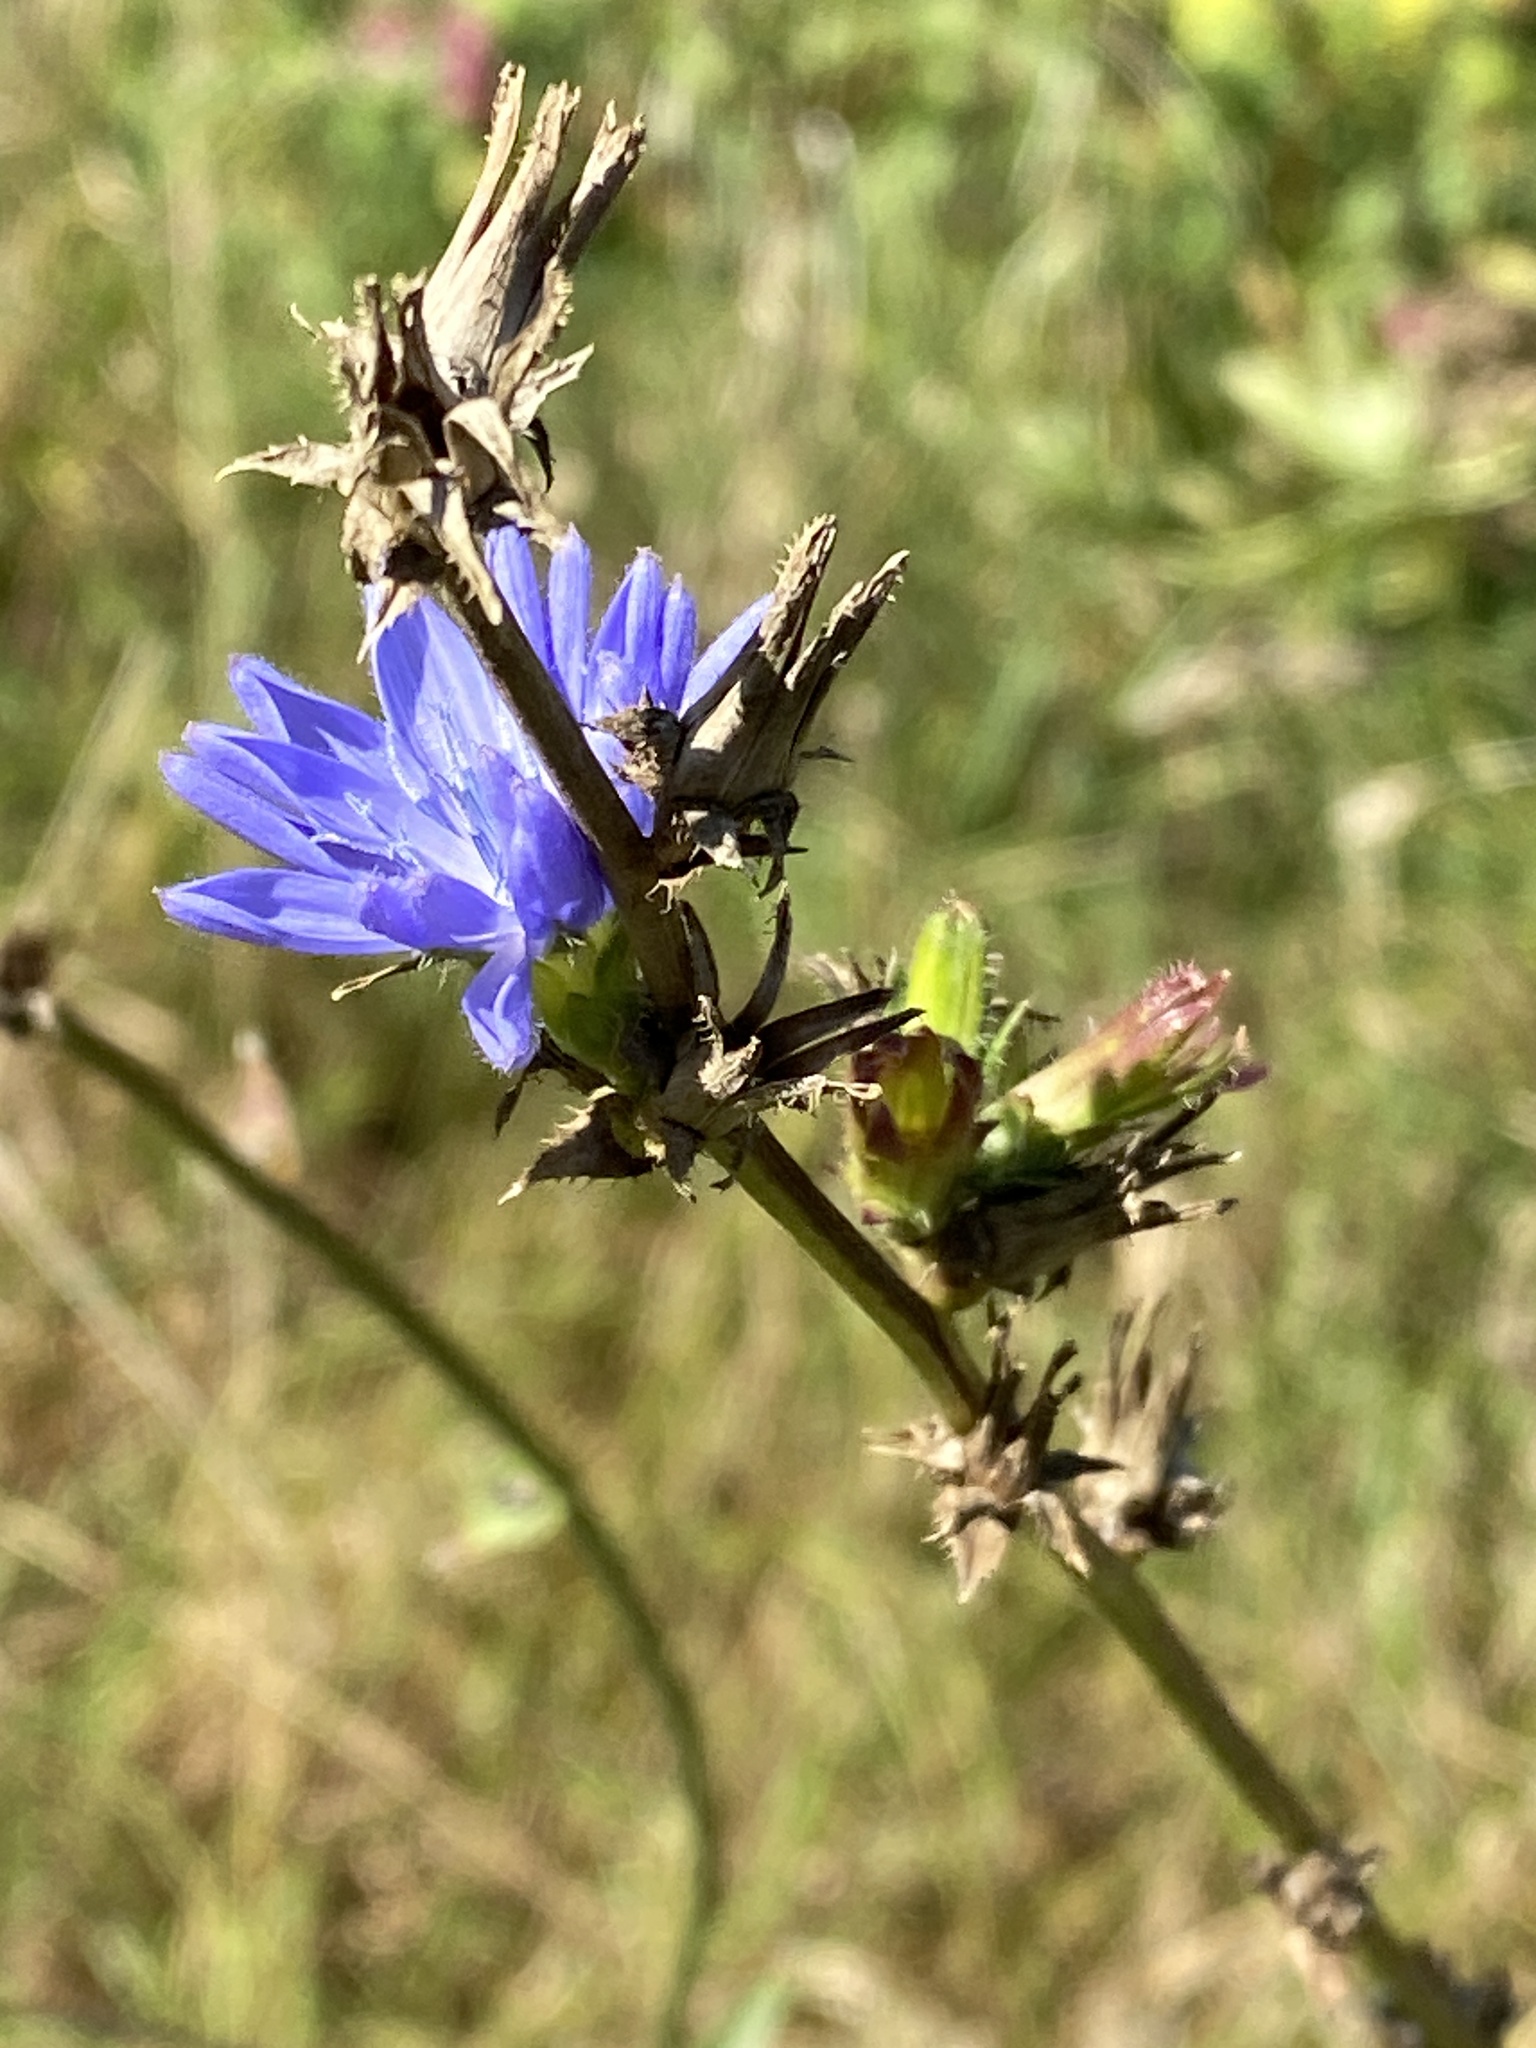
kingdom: Plantae
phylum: Tracheophyta
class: Magnoliopsida
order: Asterales
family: Asteraceae
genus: Cichorium
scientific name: Cichorium intybus
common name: Chicory
